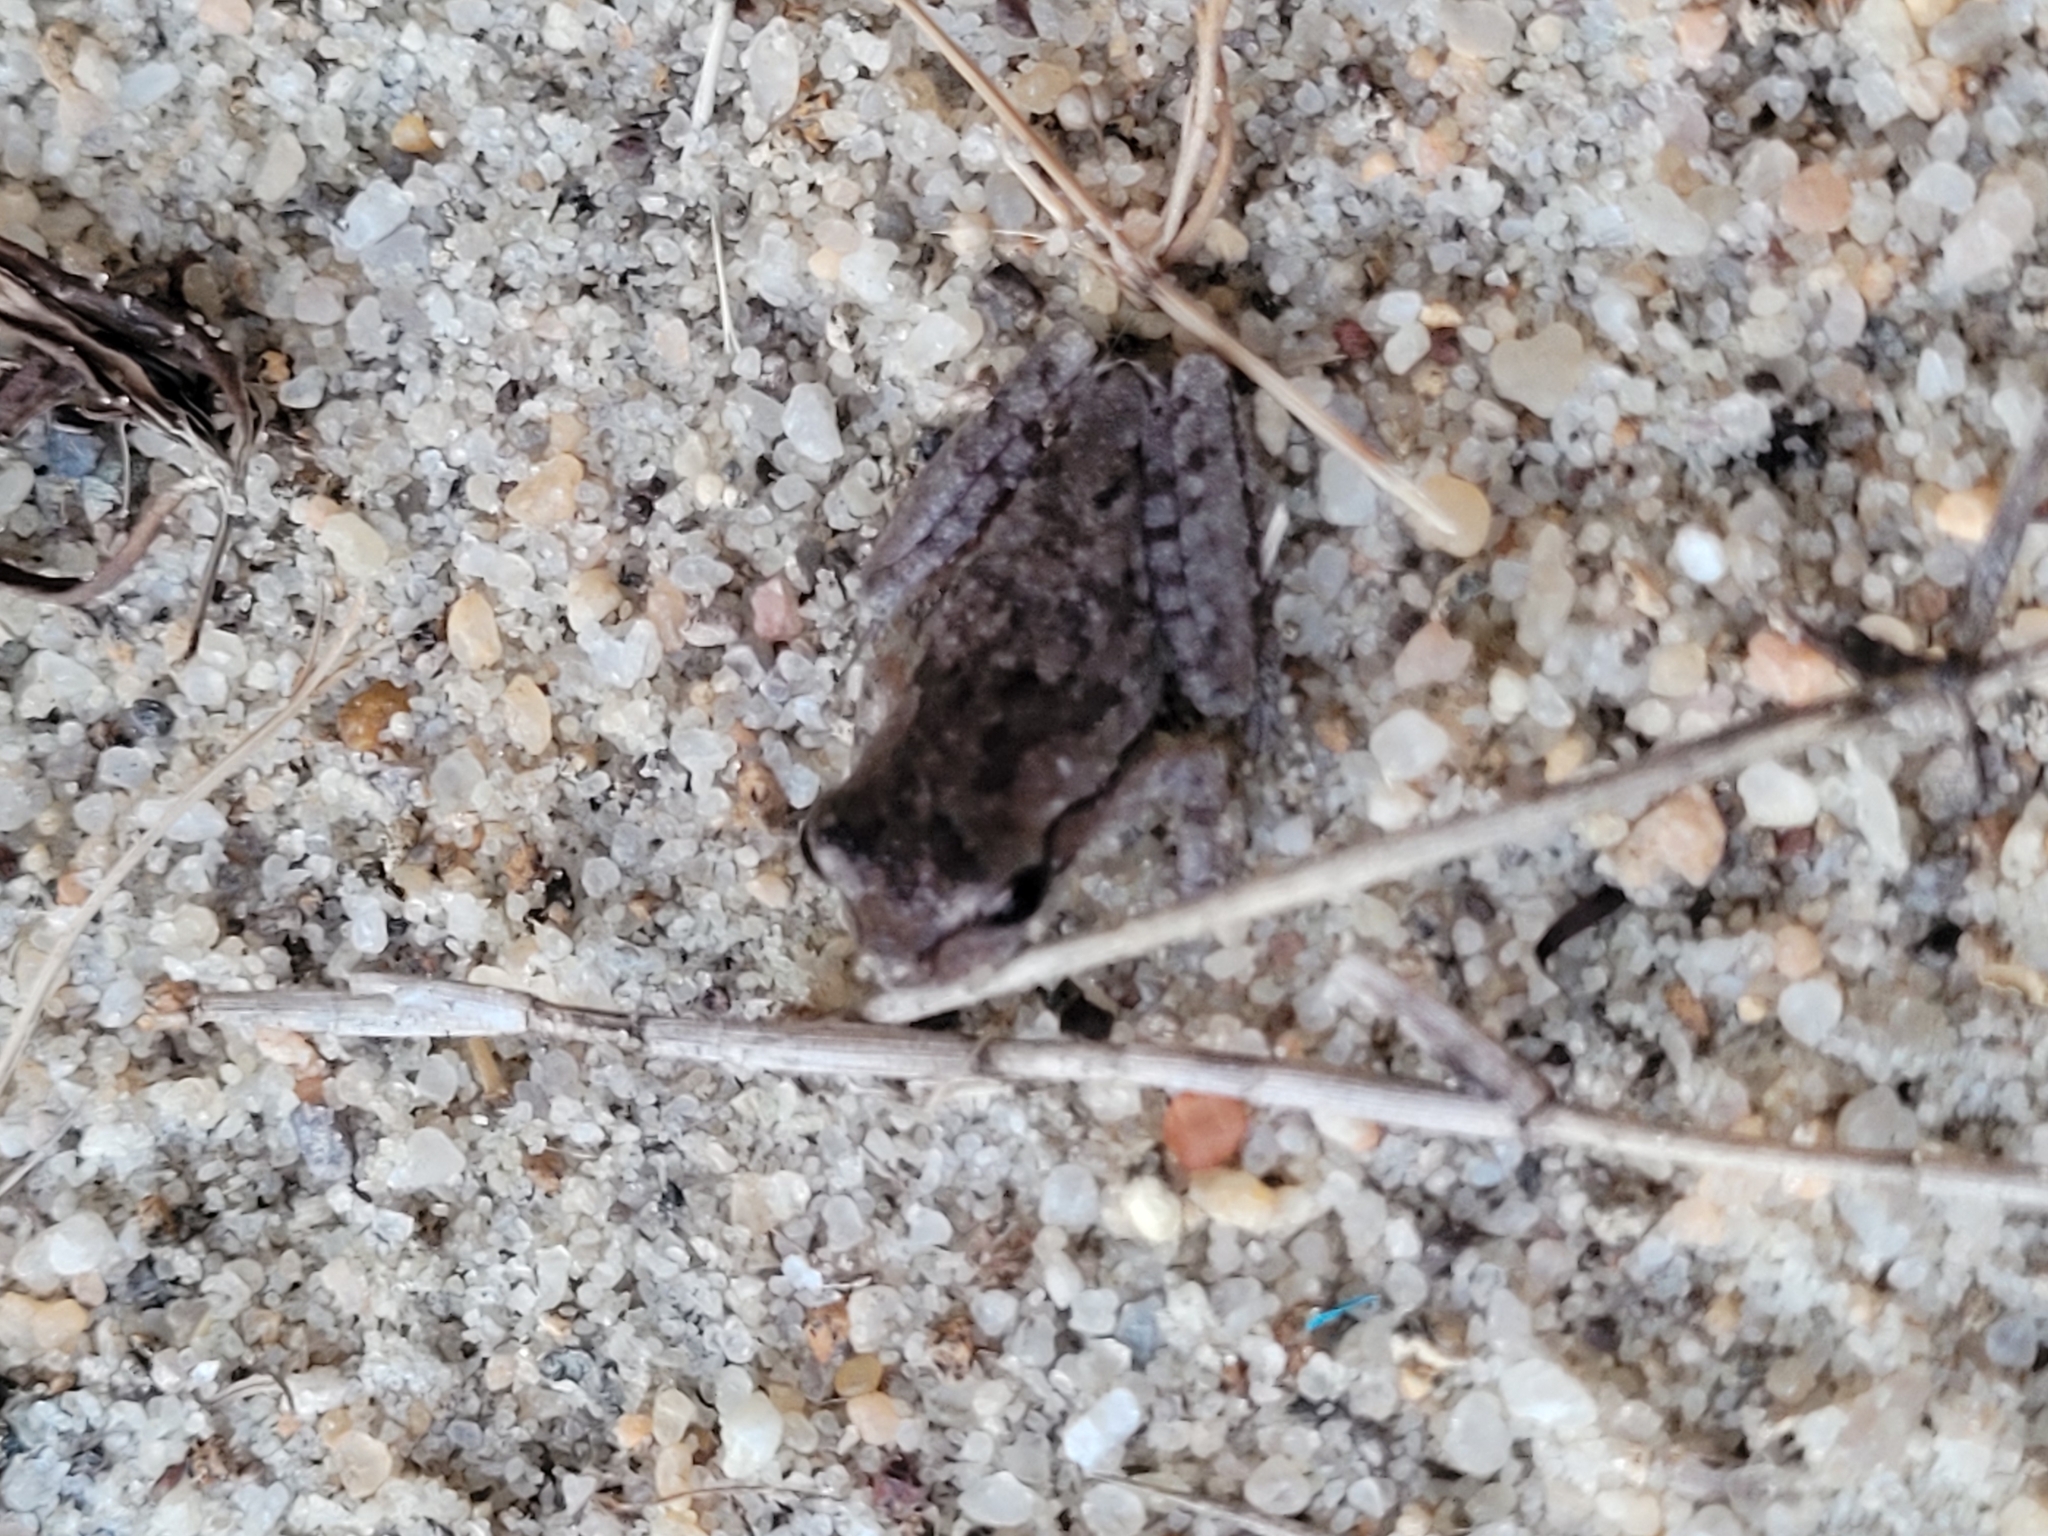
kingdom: Animalia
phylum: Chordata
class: Amphibia
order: Anura
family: Hylidae
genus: Hyla
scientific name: Hyla femoralis
